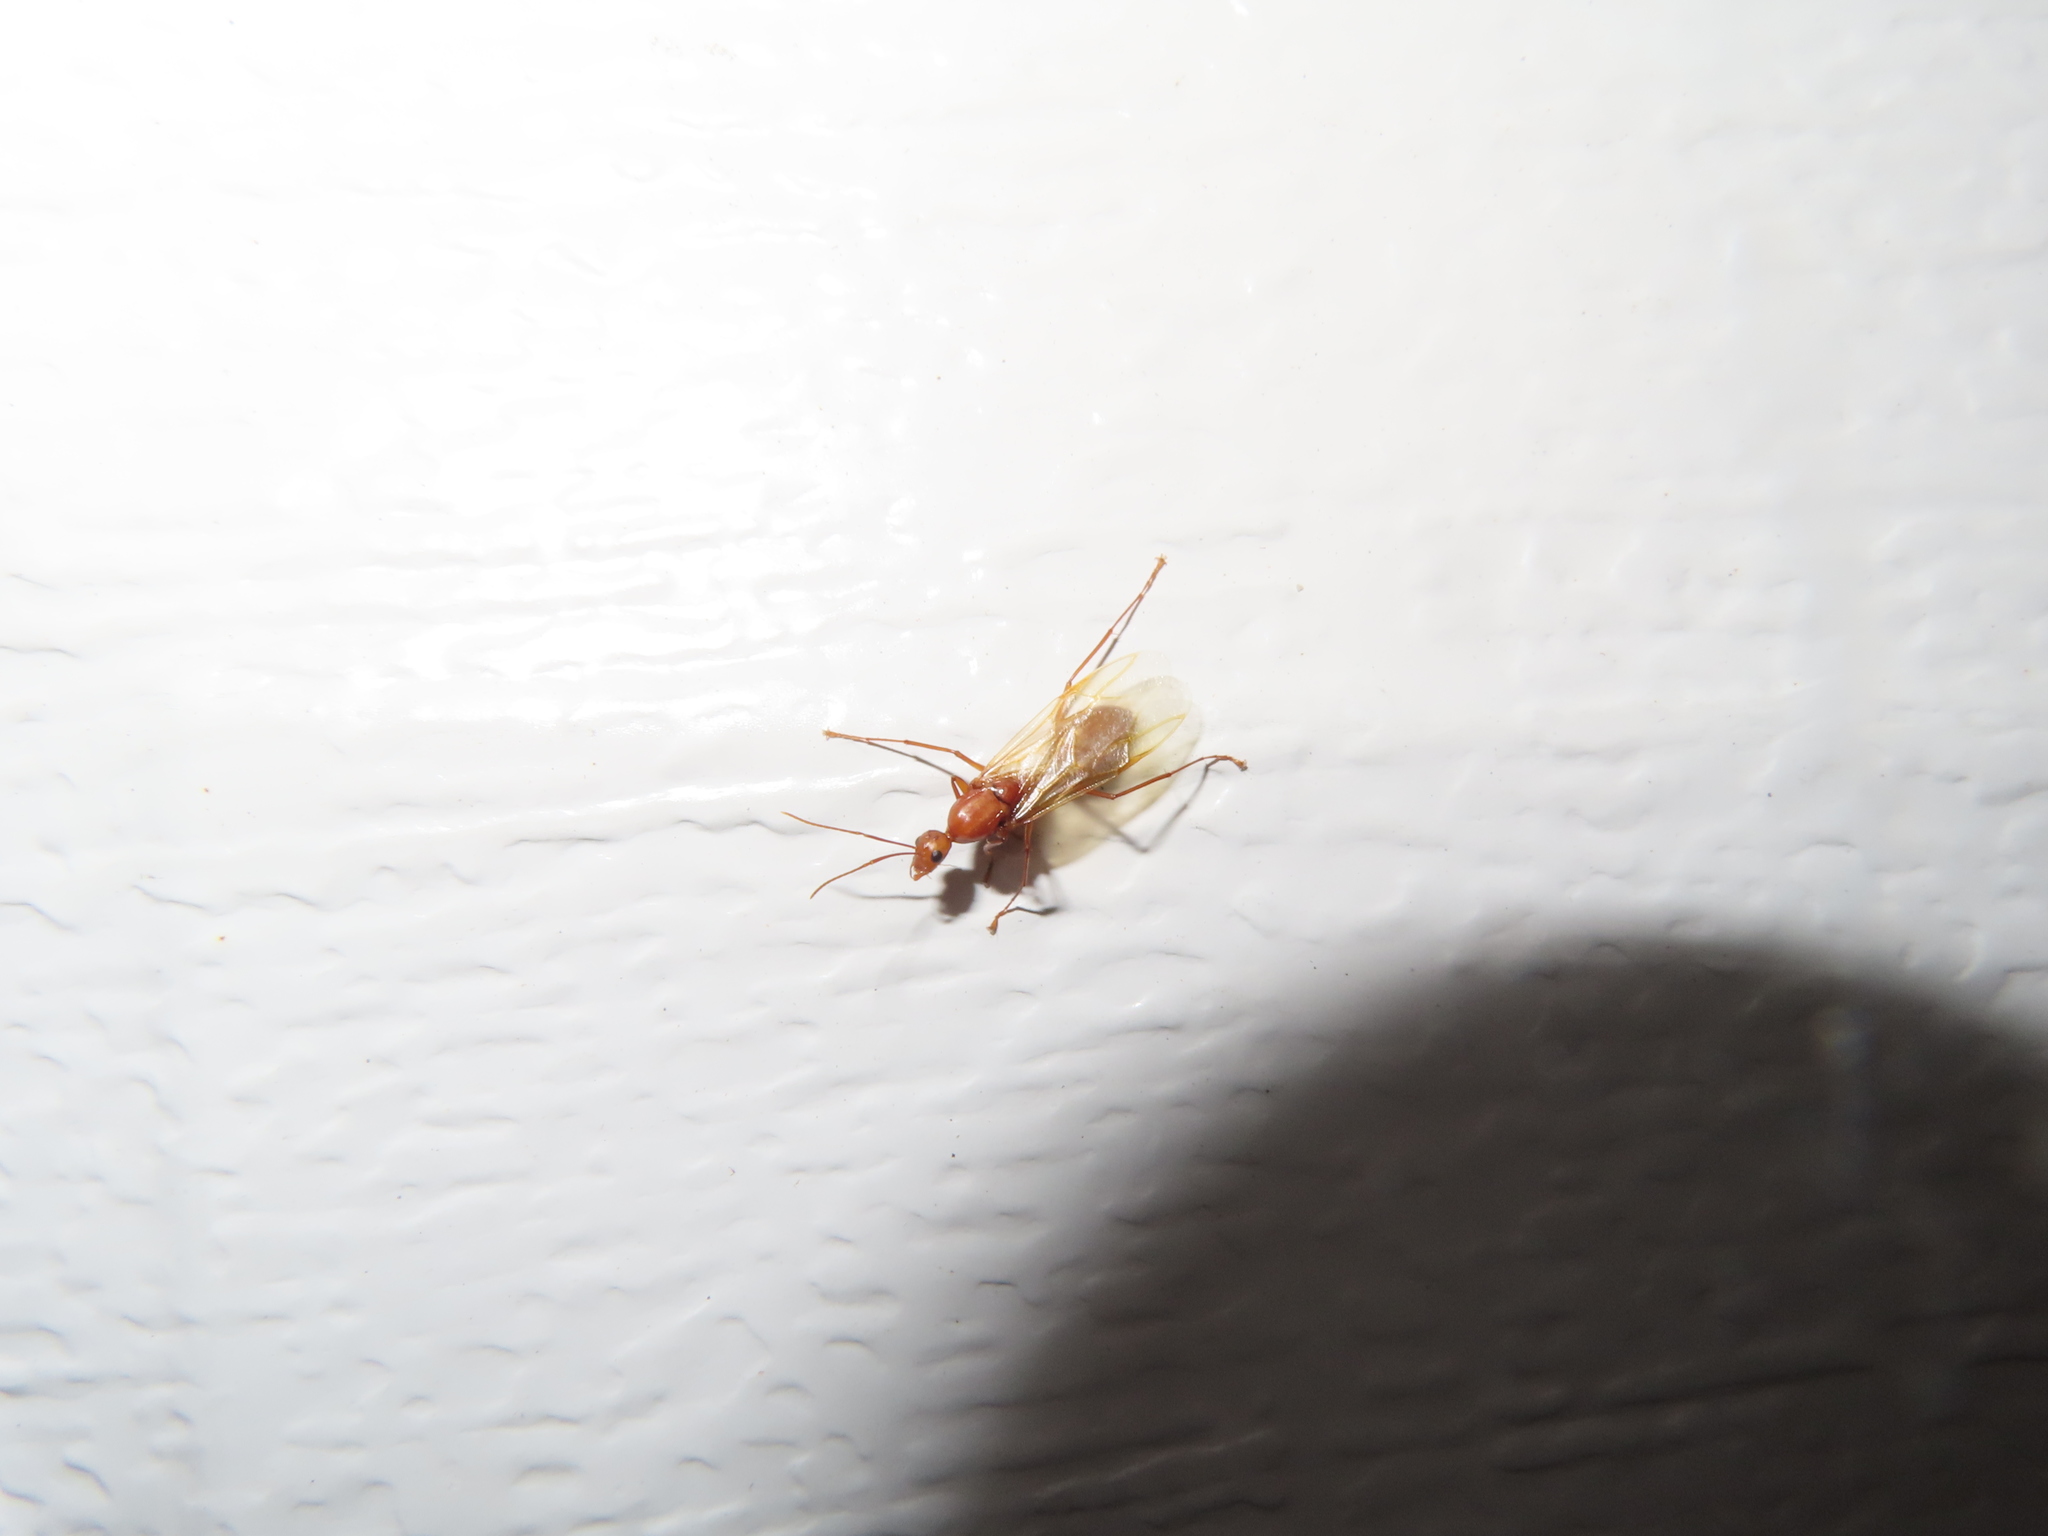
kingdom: Animalia
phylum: Arthropoda
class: Insecta
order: Hymenoptera
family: Formicidae
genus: Camponotus
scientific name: Camponotus castaneus
